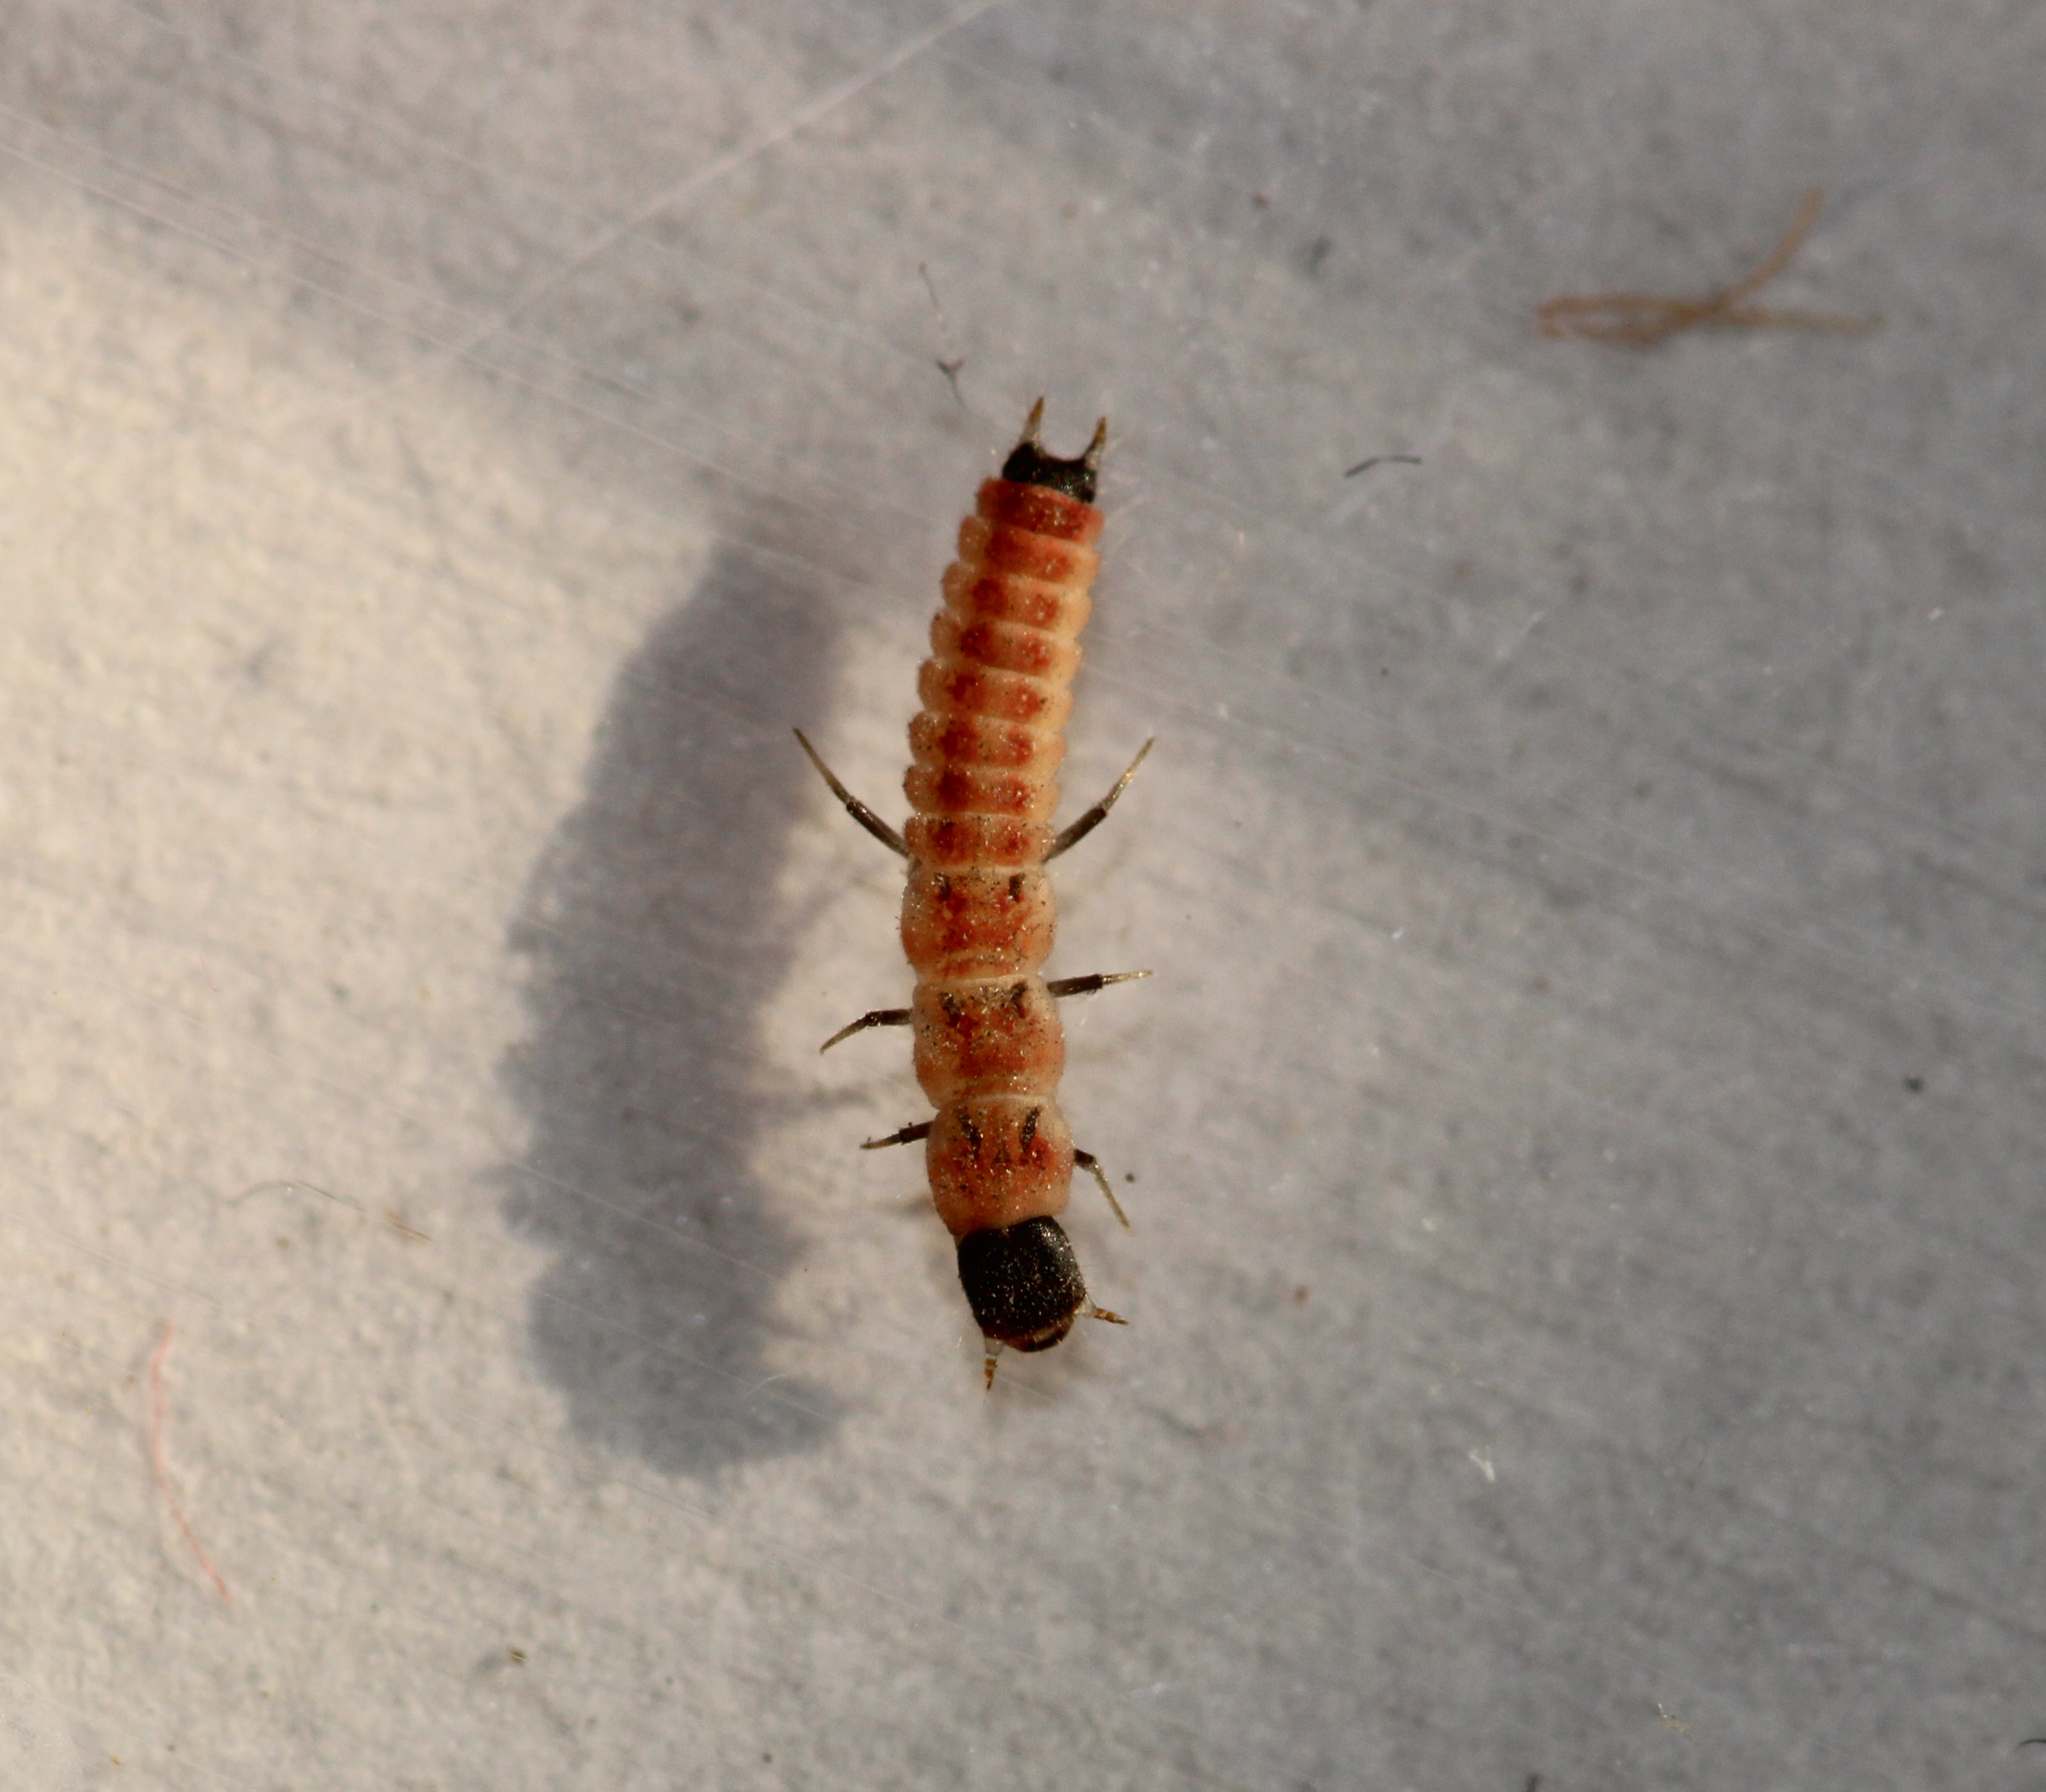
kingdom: Animalia
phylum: Arthropoda
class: Insecta
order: Coleoptera
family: Malachiidae
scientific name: Malachiidae
